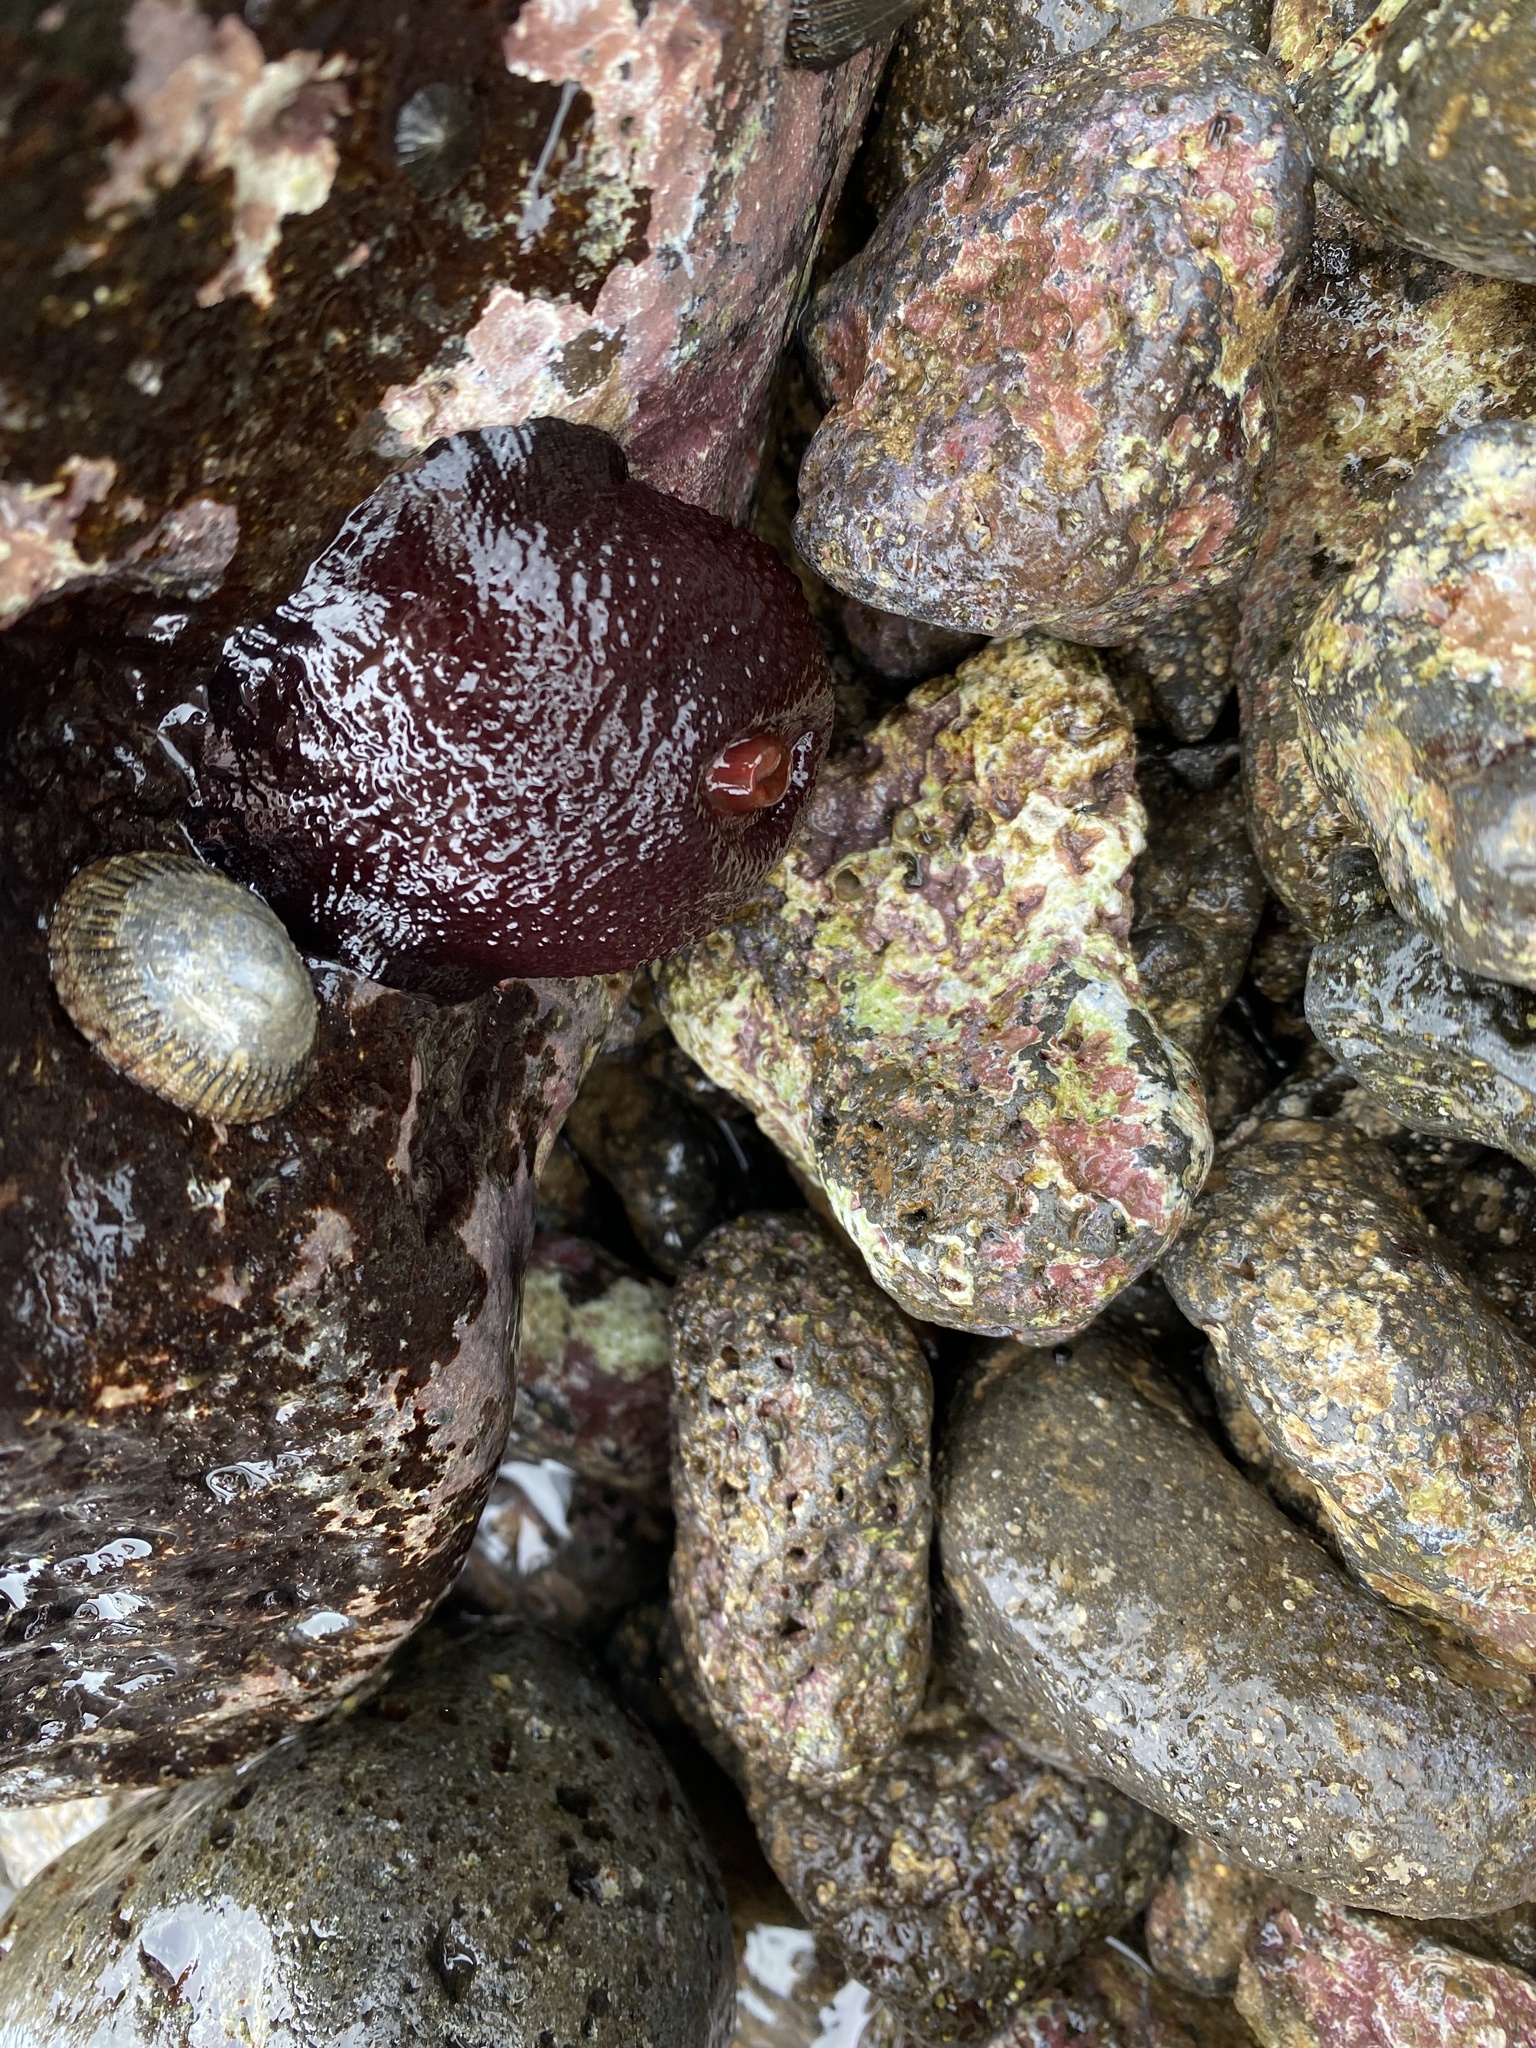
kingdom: Animalia
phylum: Cnidaria
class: Anthozoa
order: Actiniaria
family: Actiniidae
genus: Cladactella
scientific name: Cladactella manni
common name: Mann's anemone
